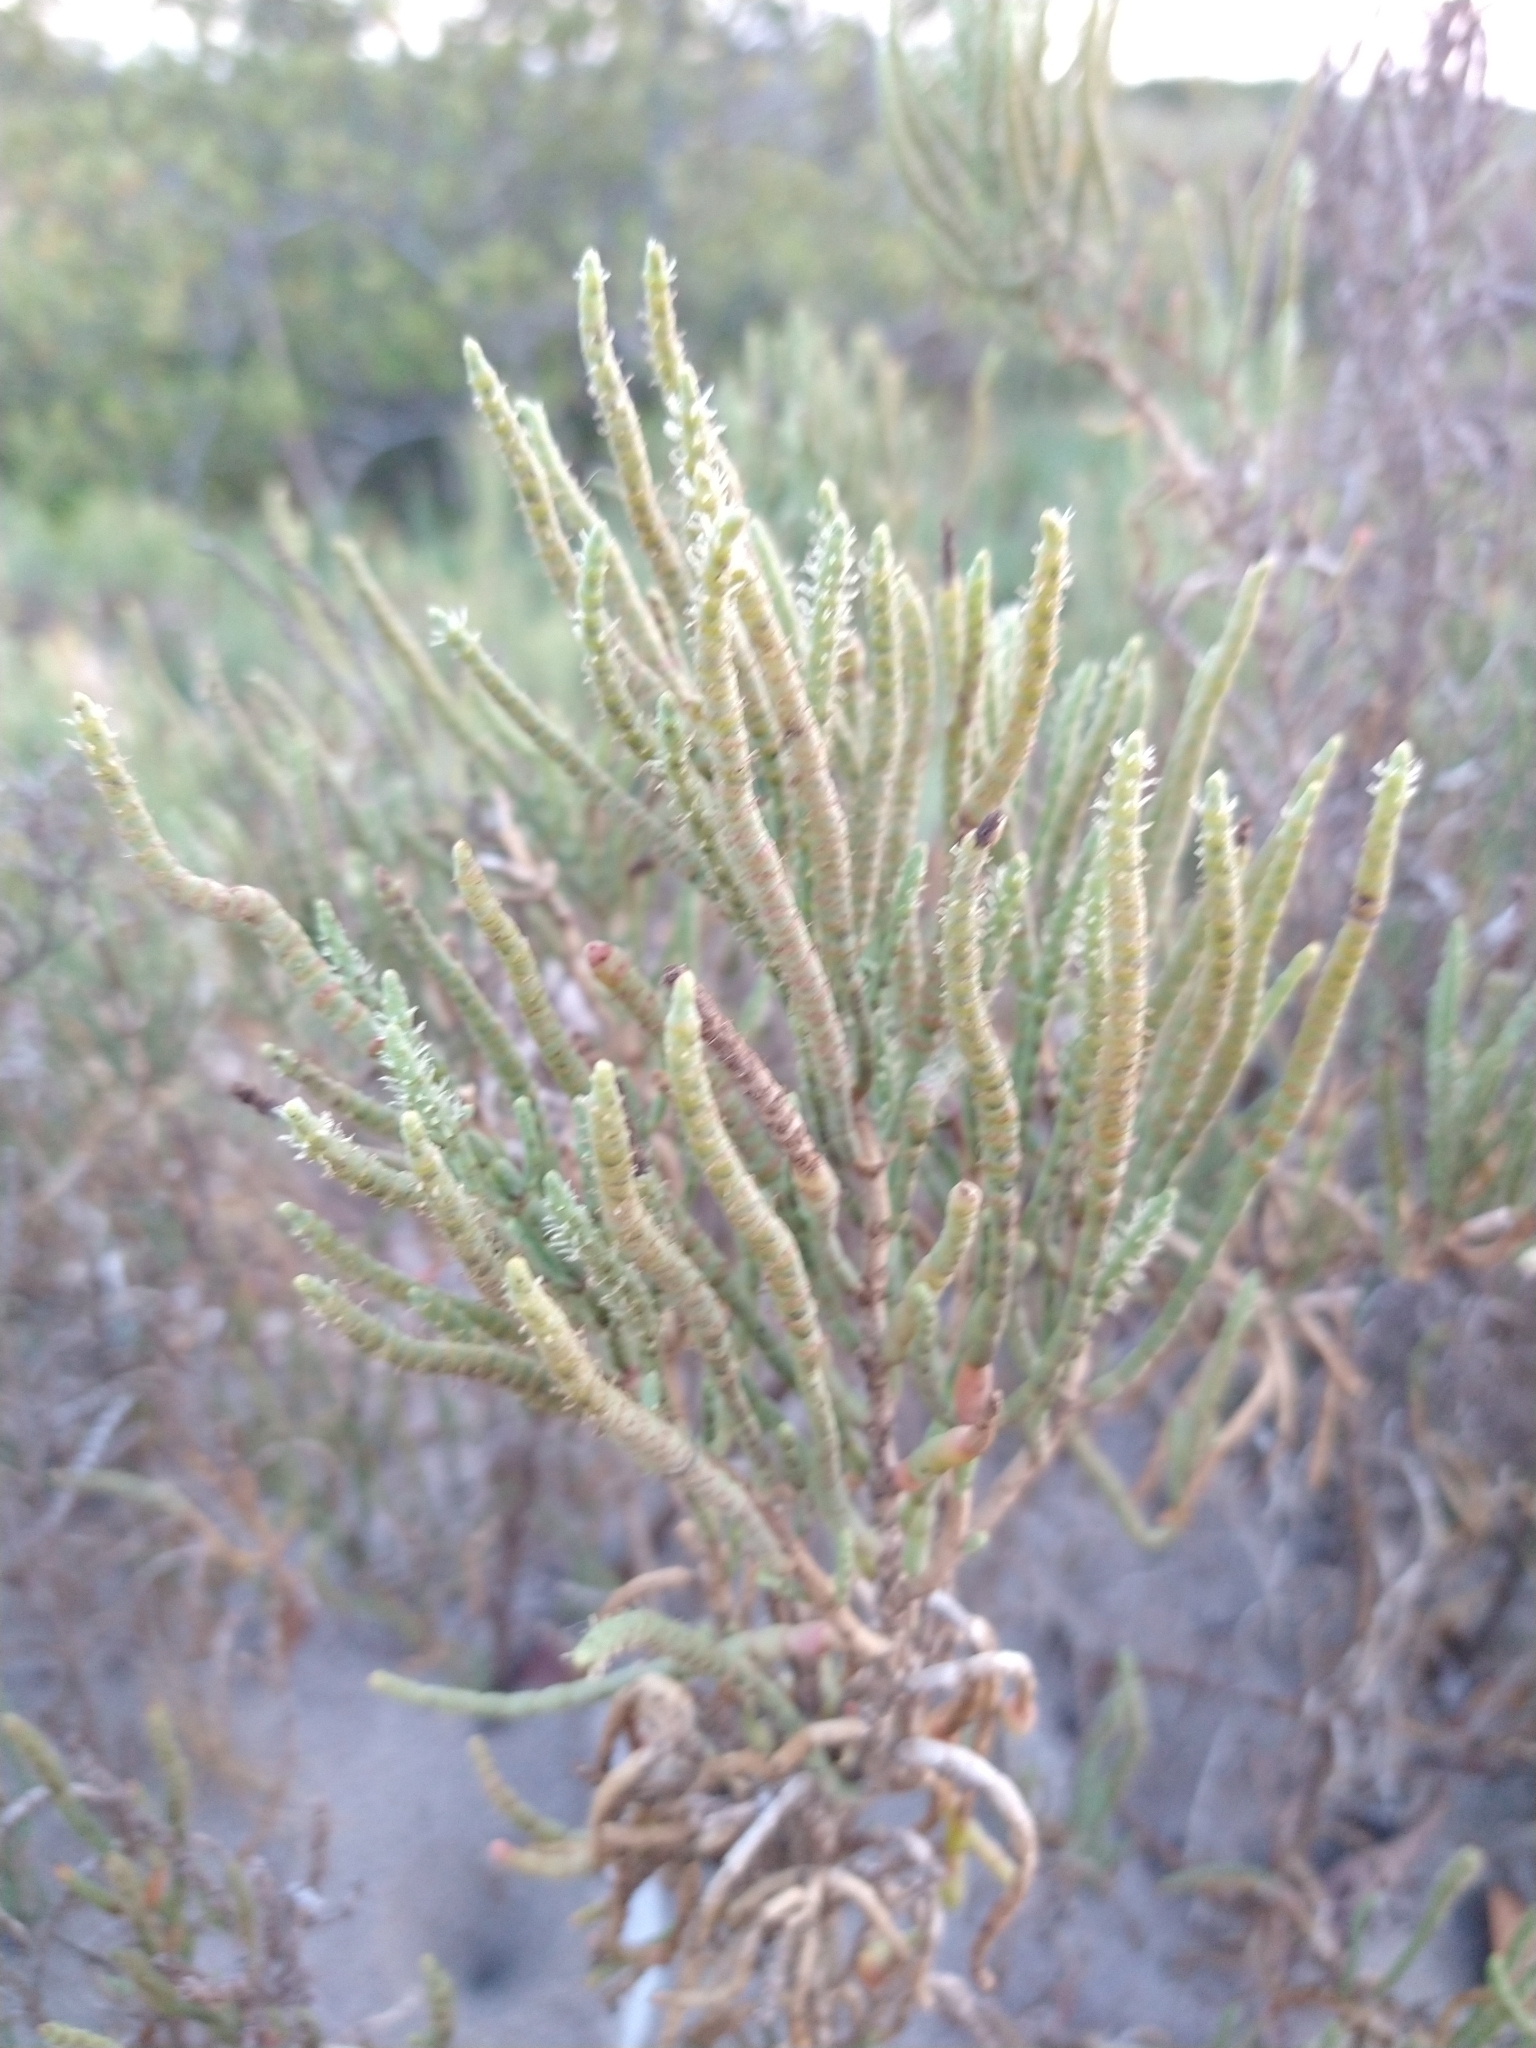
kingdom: Plantae
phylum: Tracheophyta
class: Magnoliopsida
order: Caryophyllales
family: Amaranthaceae
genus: Allenrolfea
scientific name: Allenrolfea occidentalis
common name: Iodine-bush
